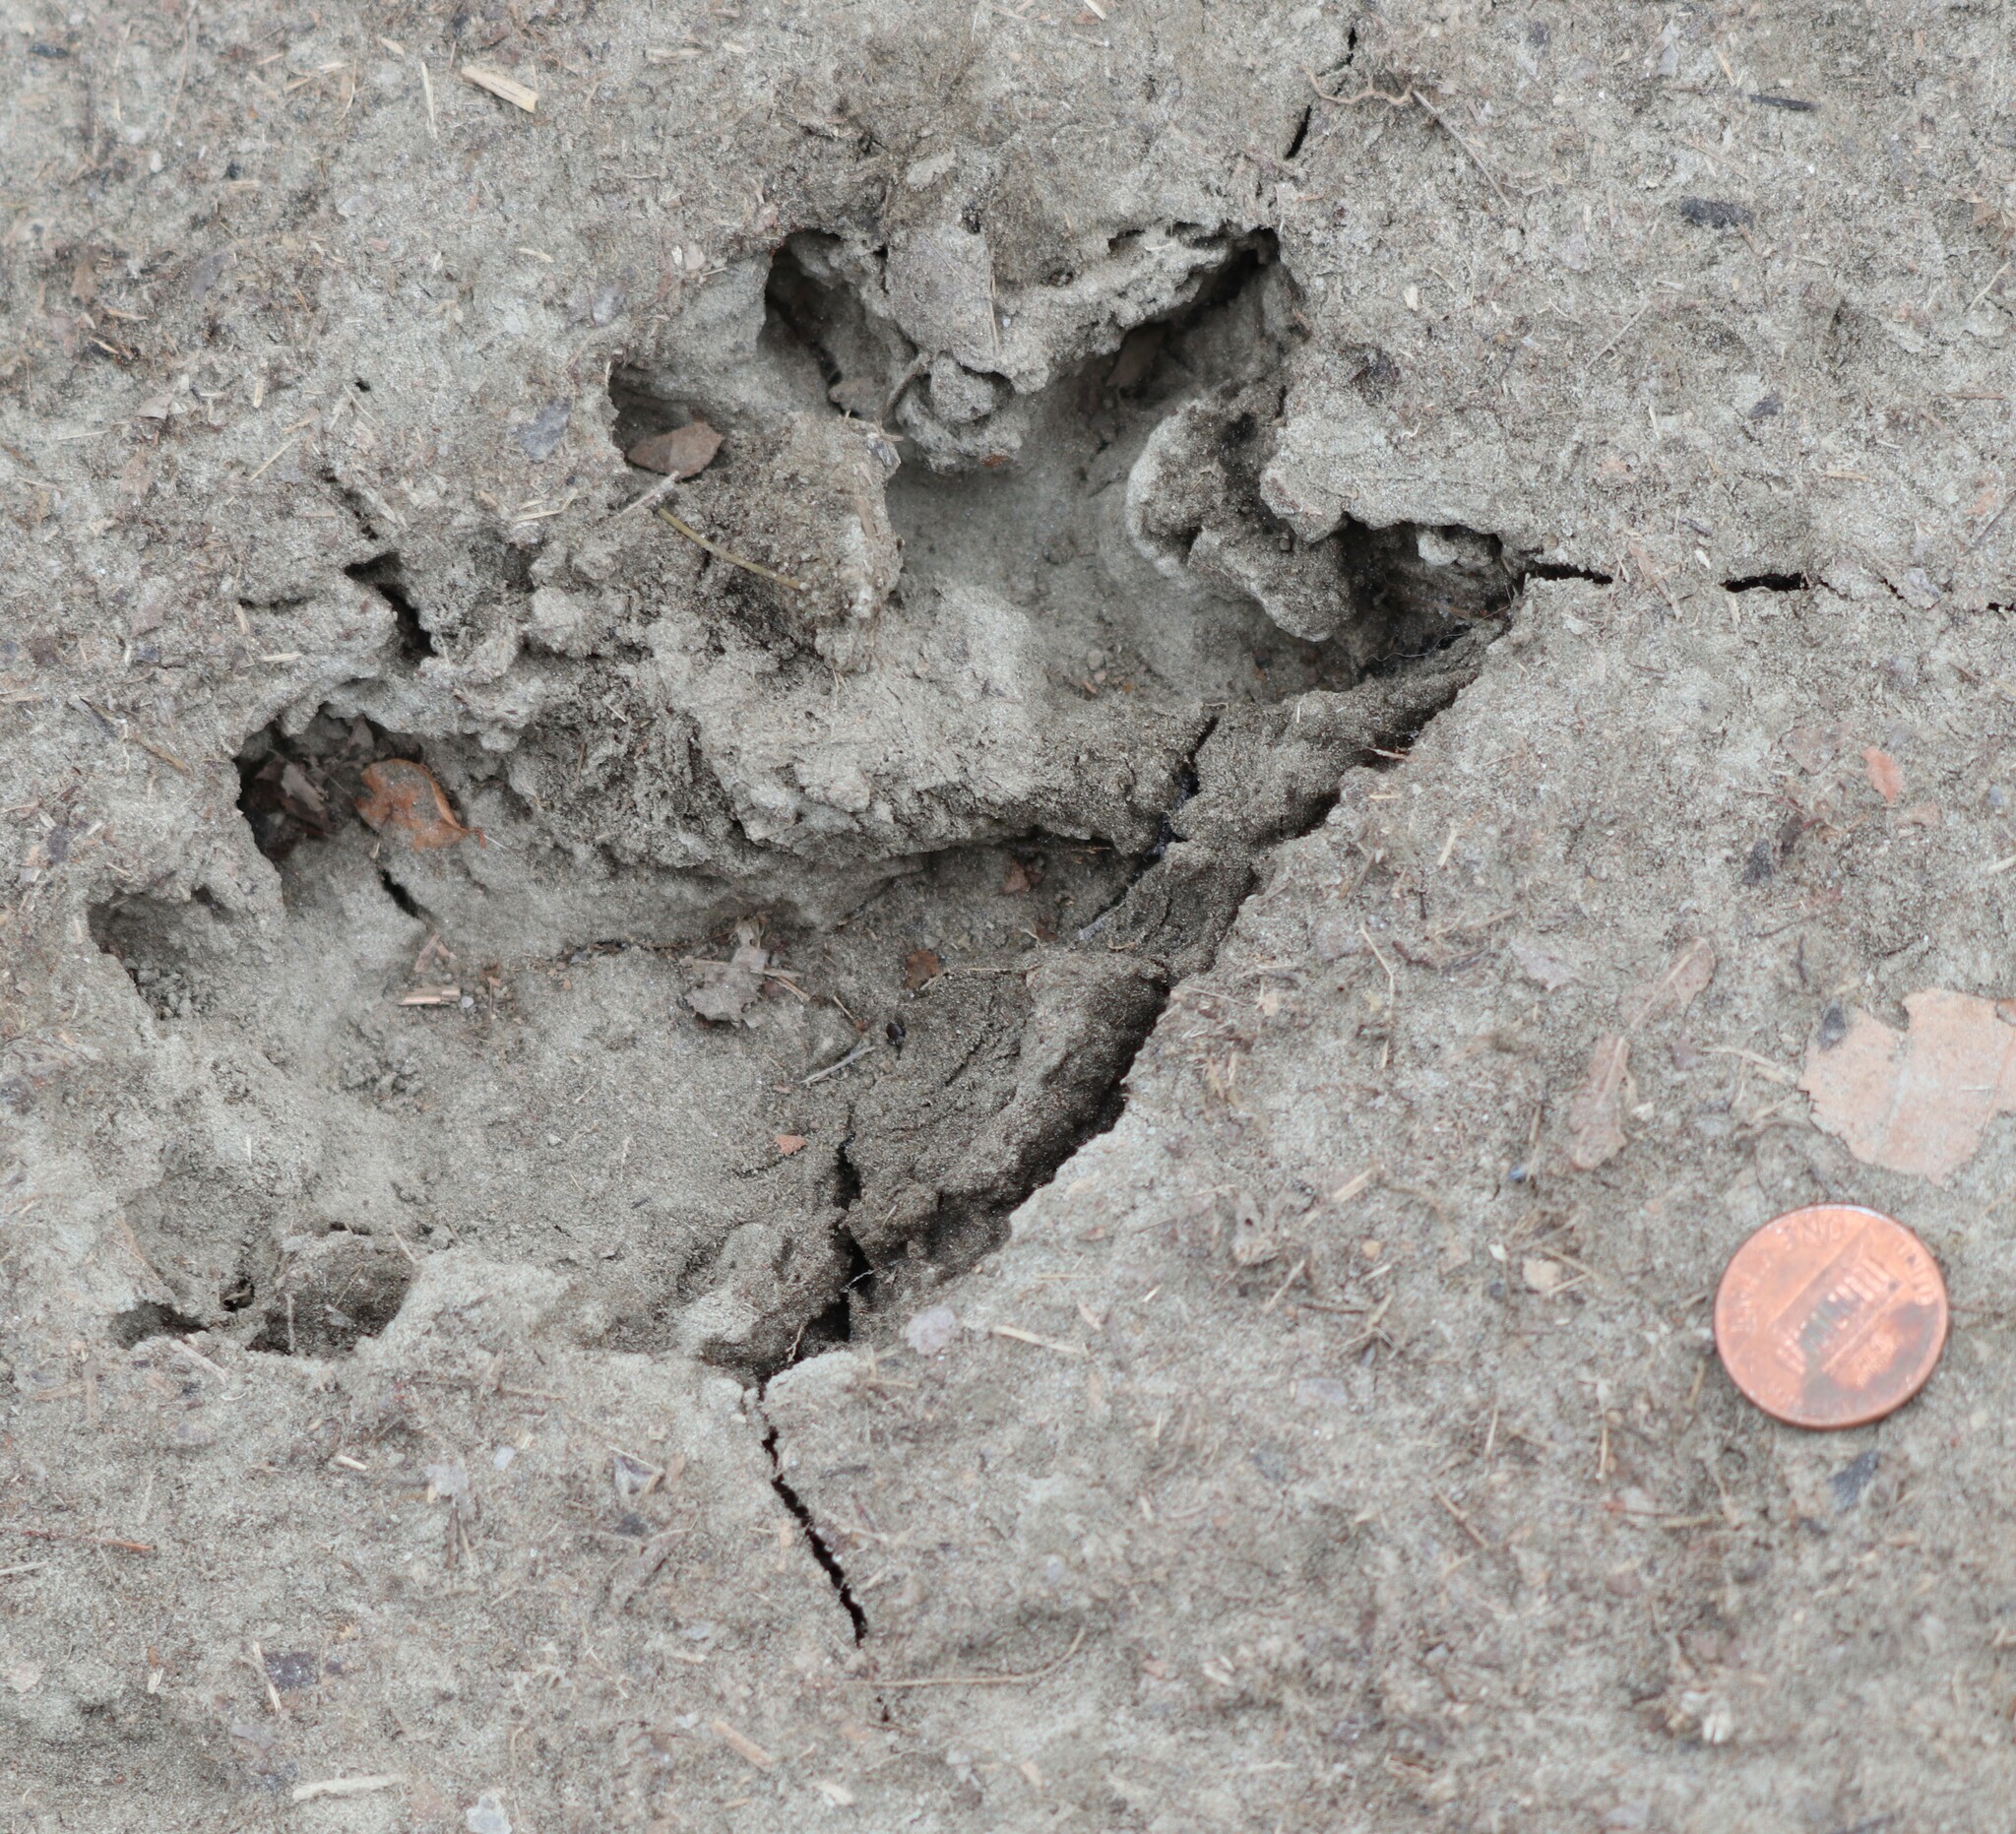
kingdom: Animalia
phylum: Chordata
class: Mammalia
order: Didelphimorphia
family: Didelphidae
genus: Didelphis
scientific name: Didelphis virginiana
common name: Virginia opossum
